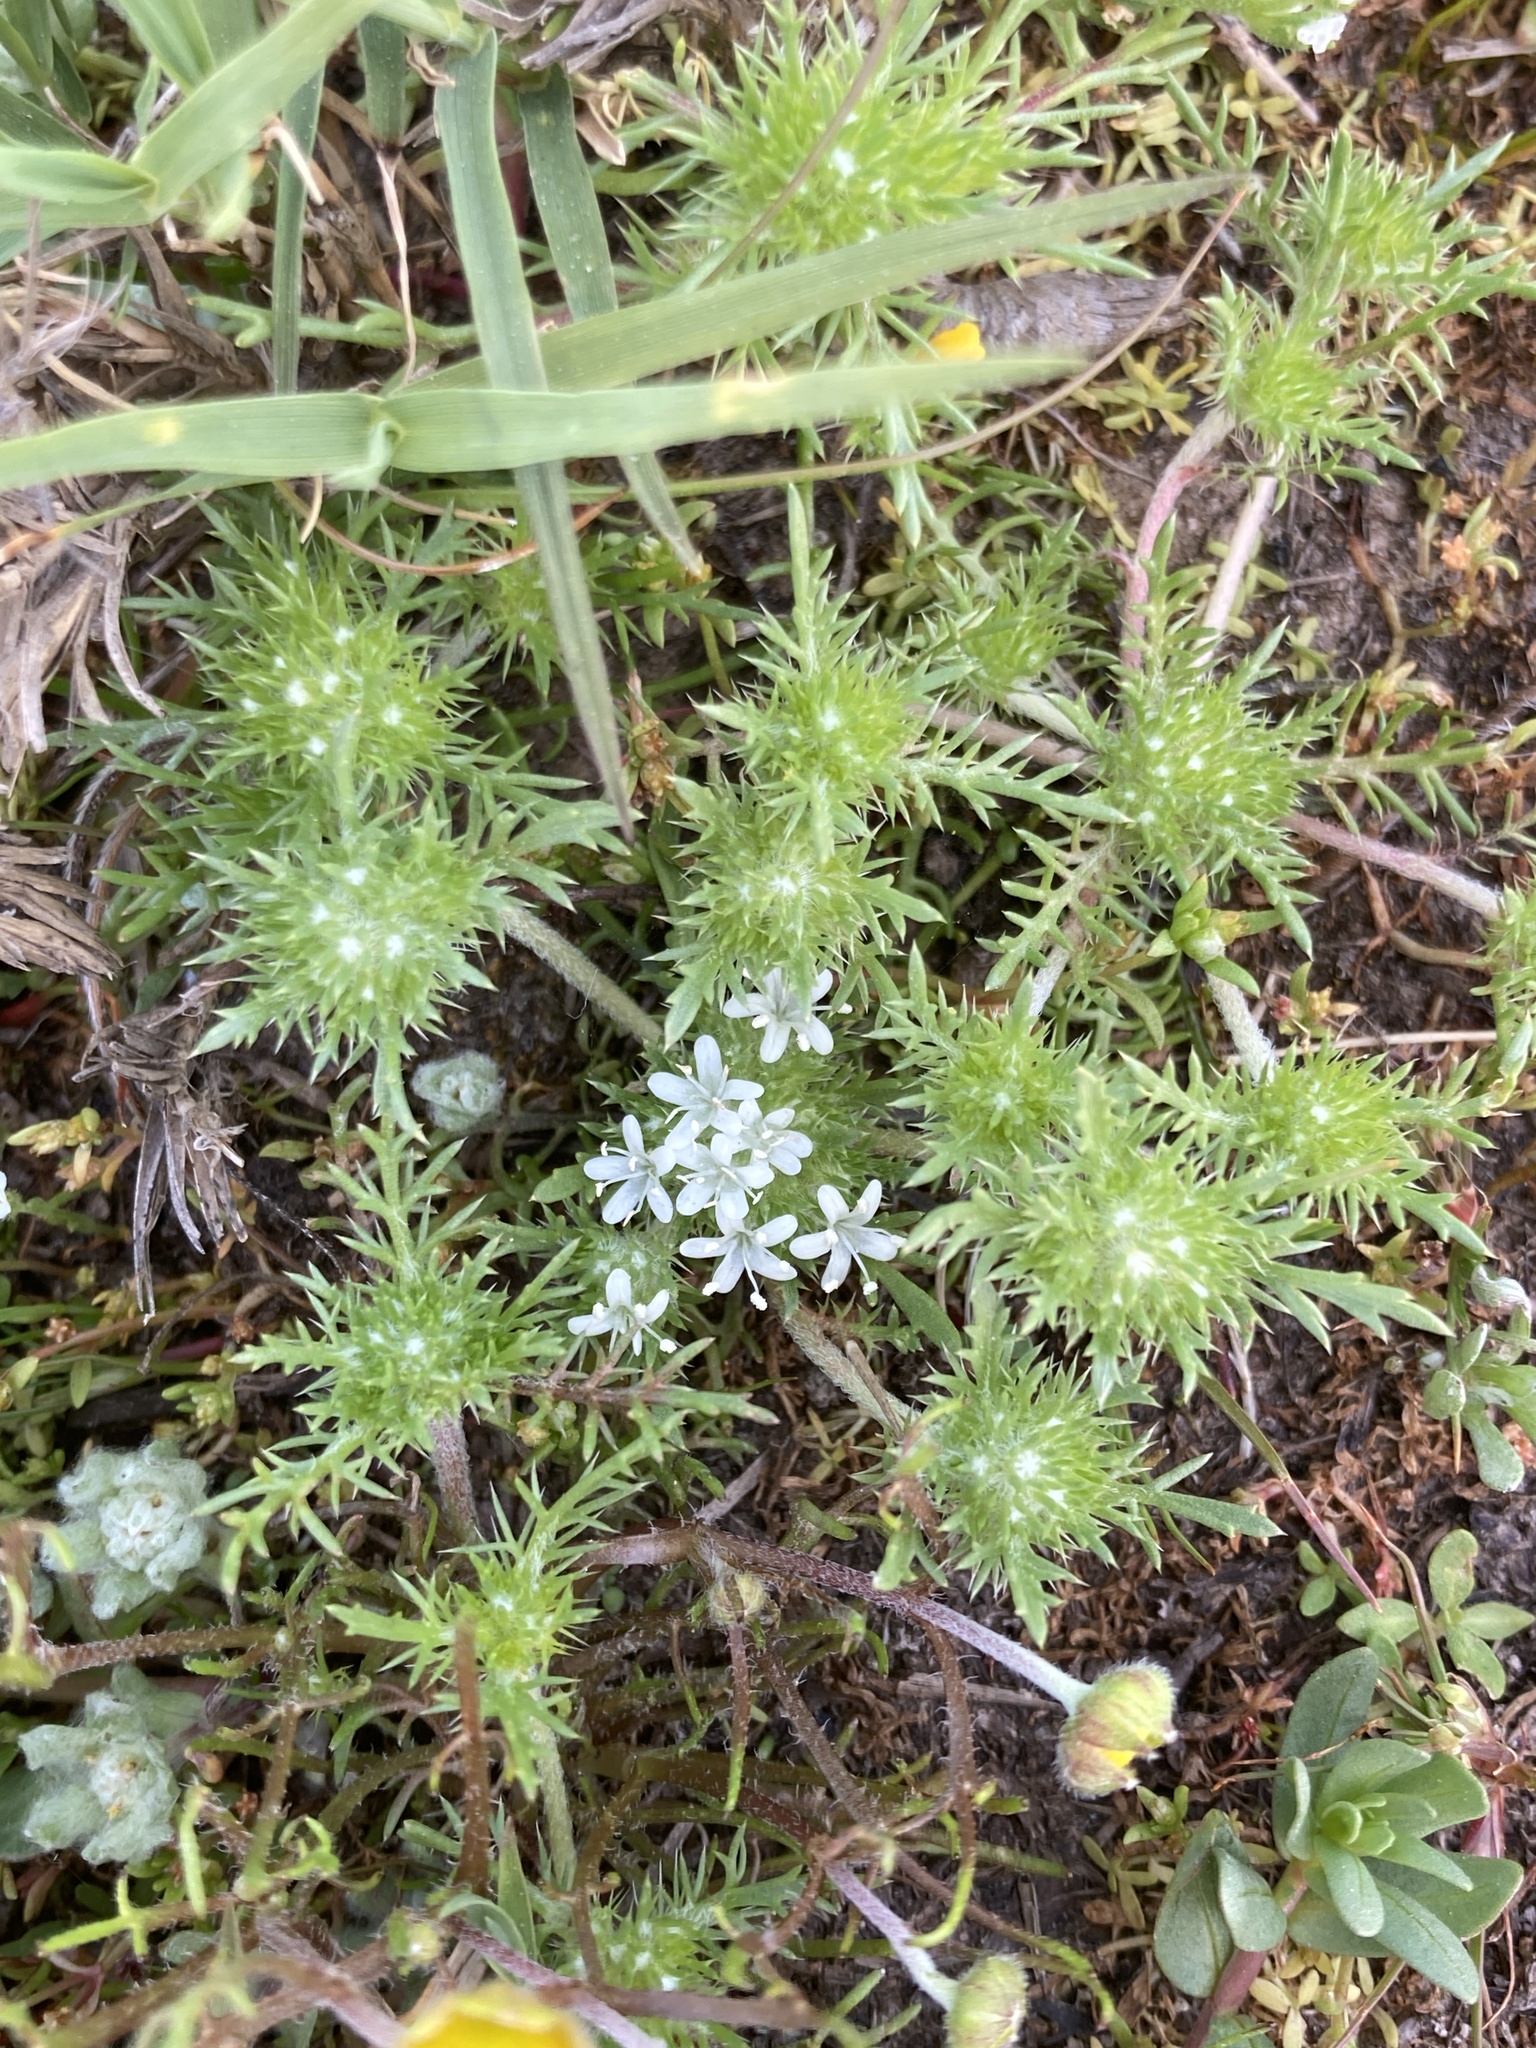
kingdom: Plantae
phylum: Tracheophyta
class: Magnoliopsida
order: Ericales
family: Polemoniaceae
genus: Navarretia
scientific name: Navarretia leucocephala
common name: White-flowered navarretia
